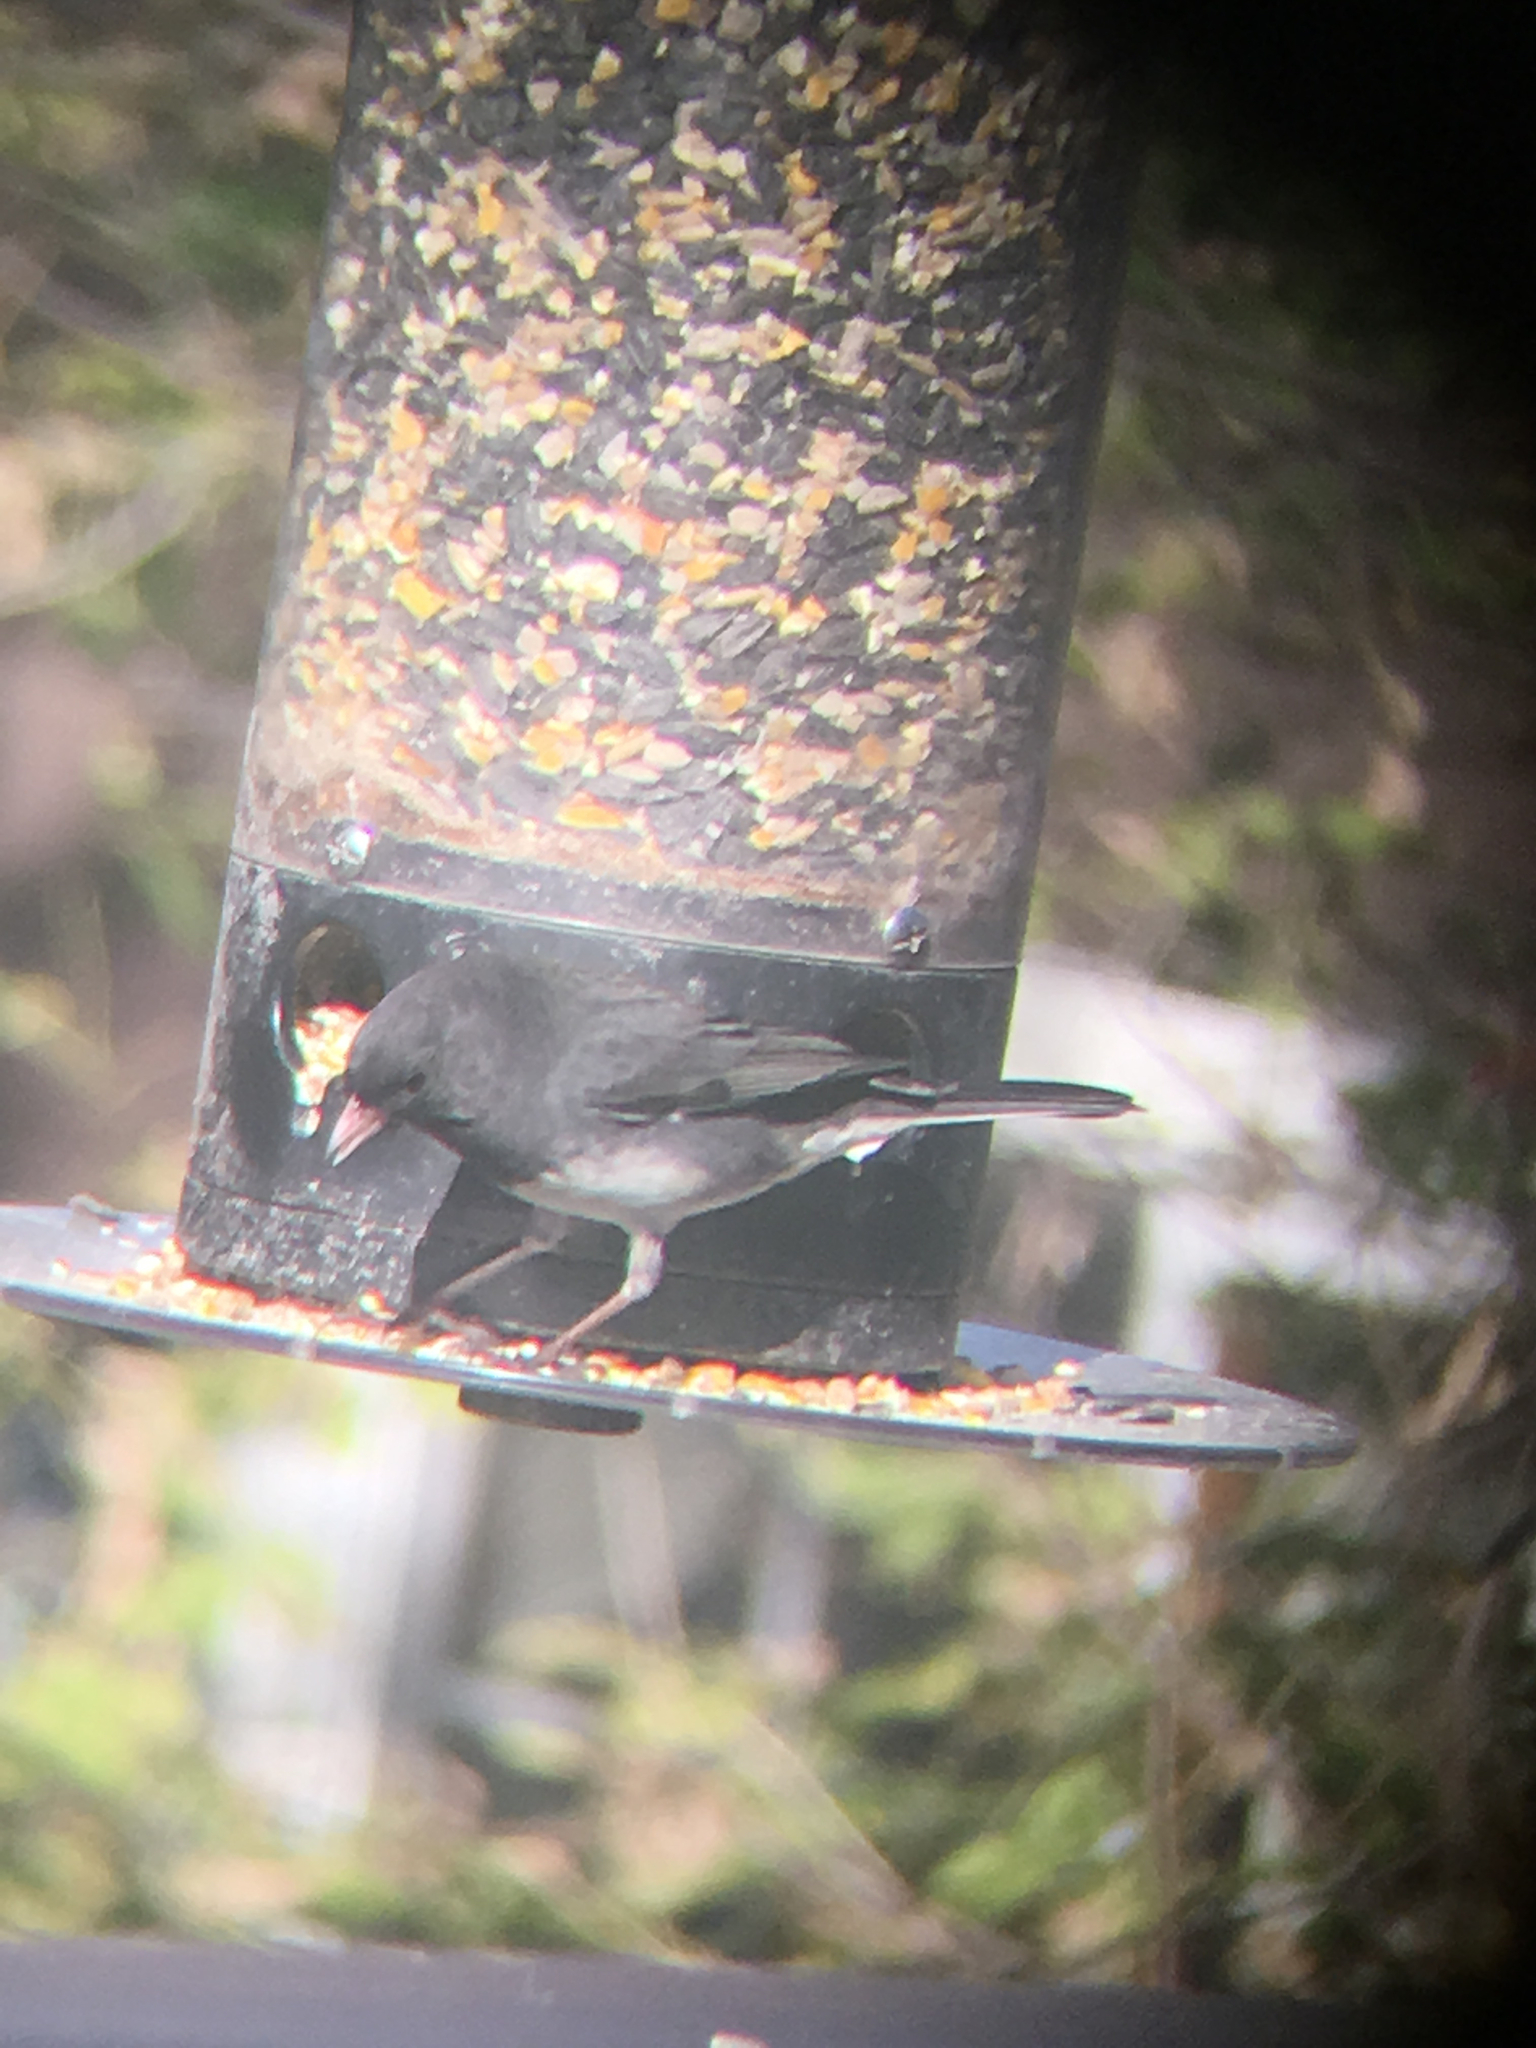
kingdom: Animalia
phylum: Chordata
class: Aves
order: Passeriformes
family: Passerellidae
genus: Junco
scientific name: Junco hyemalis
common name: Dark-eyed junco
